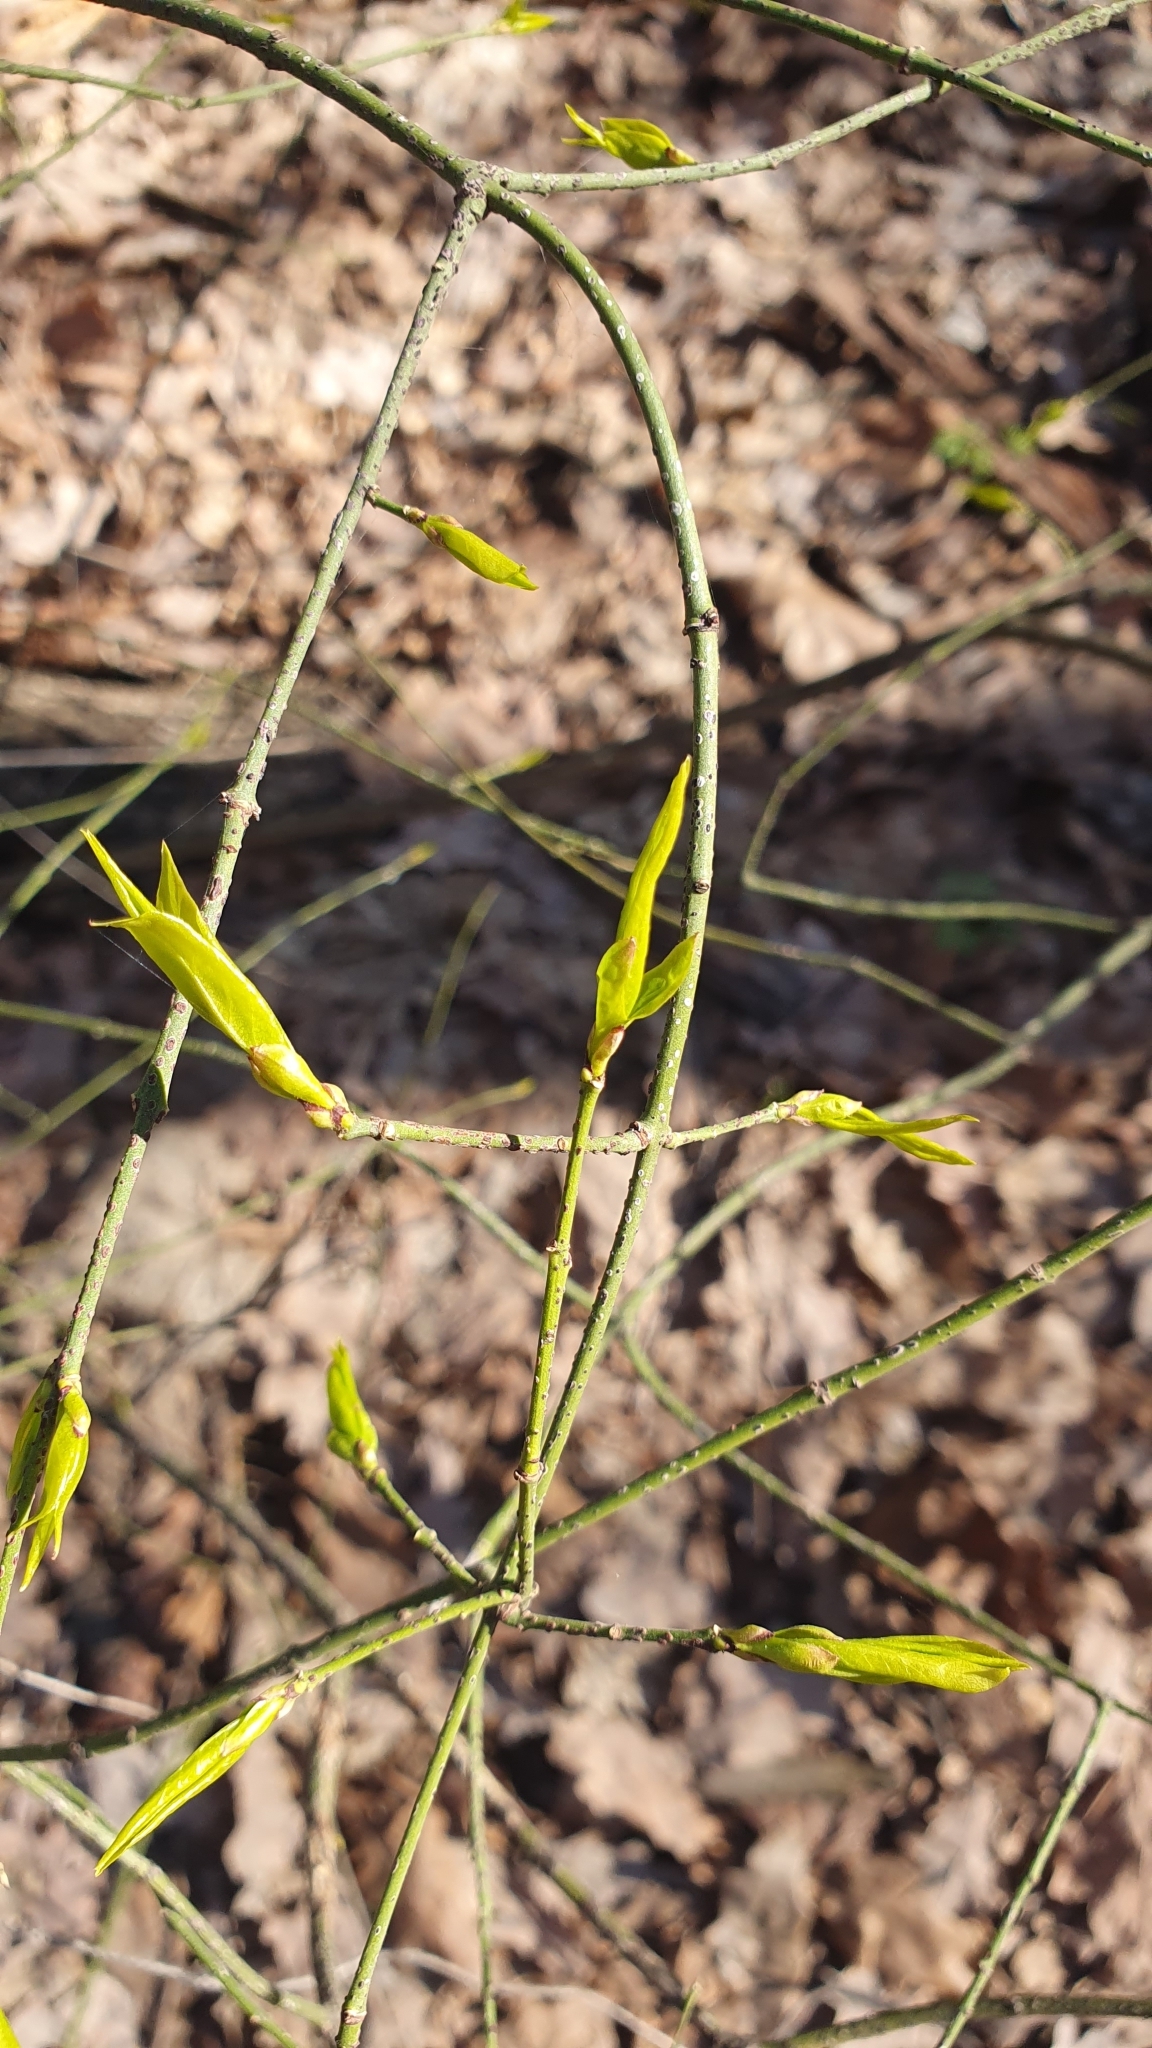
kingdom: Plantae
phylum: Tracheophyta
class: Magnoliopsida
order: Celastrales
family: Celastraceae
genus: Euonymus
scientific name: Euonymus verrucosus
